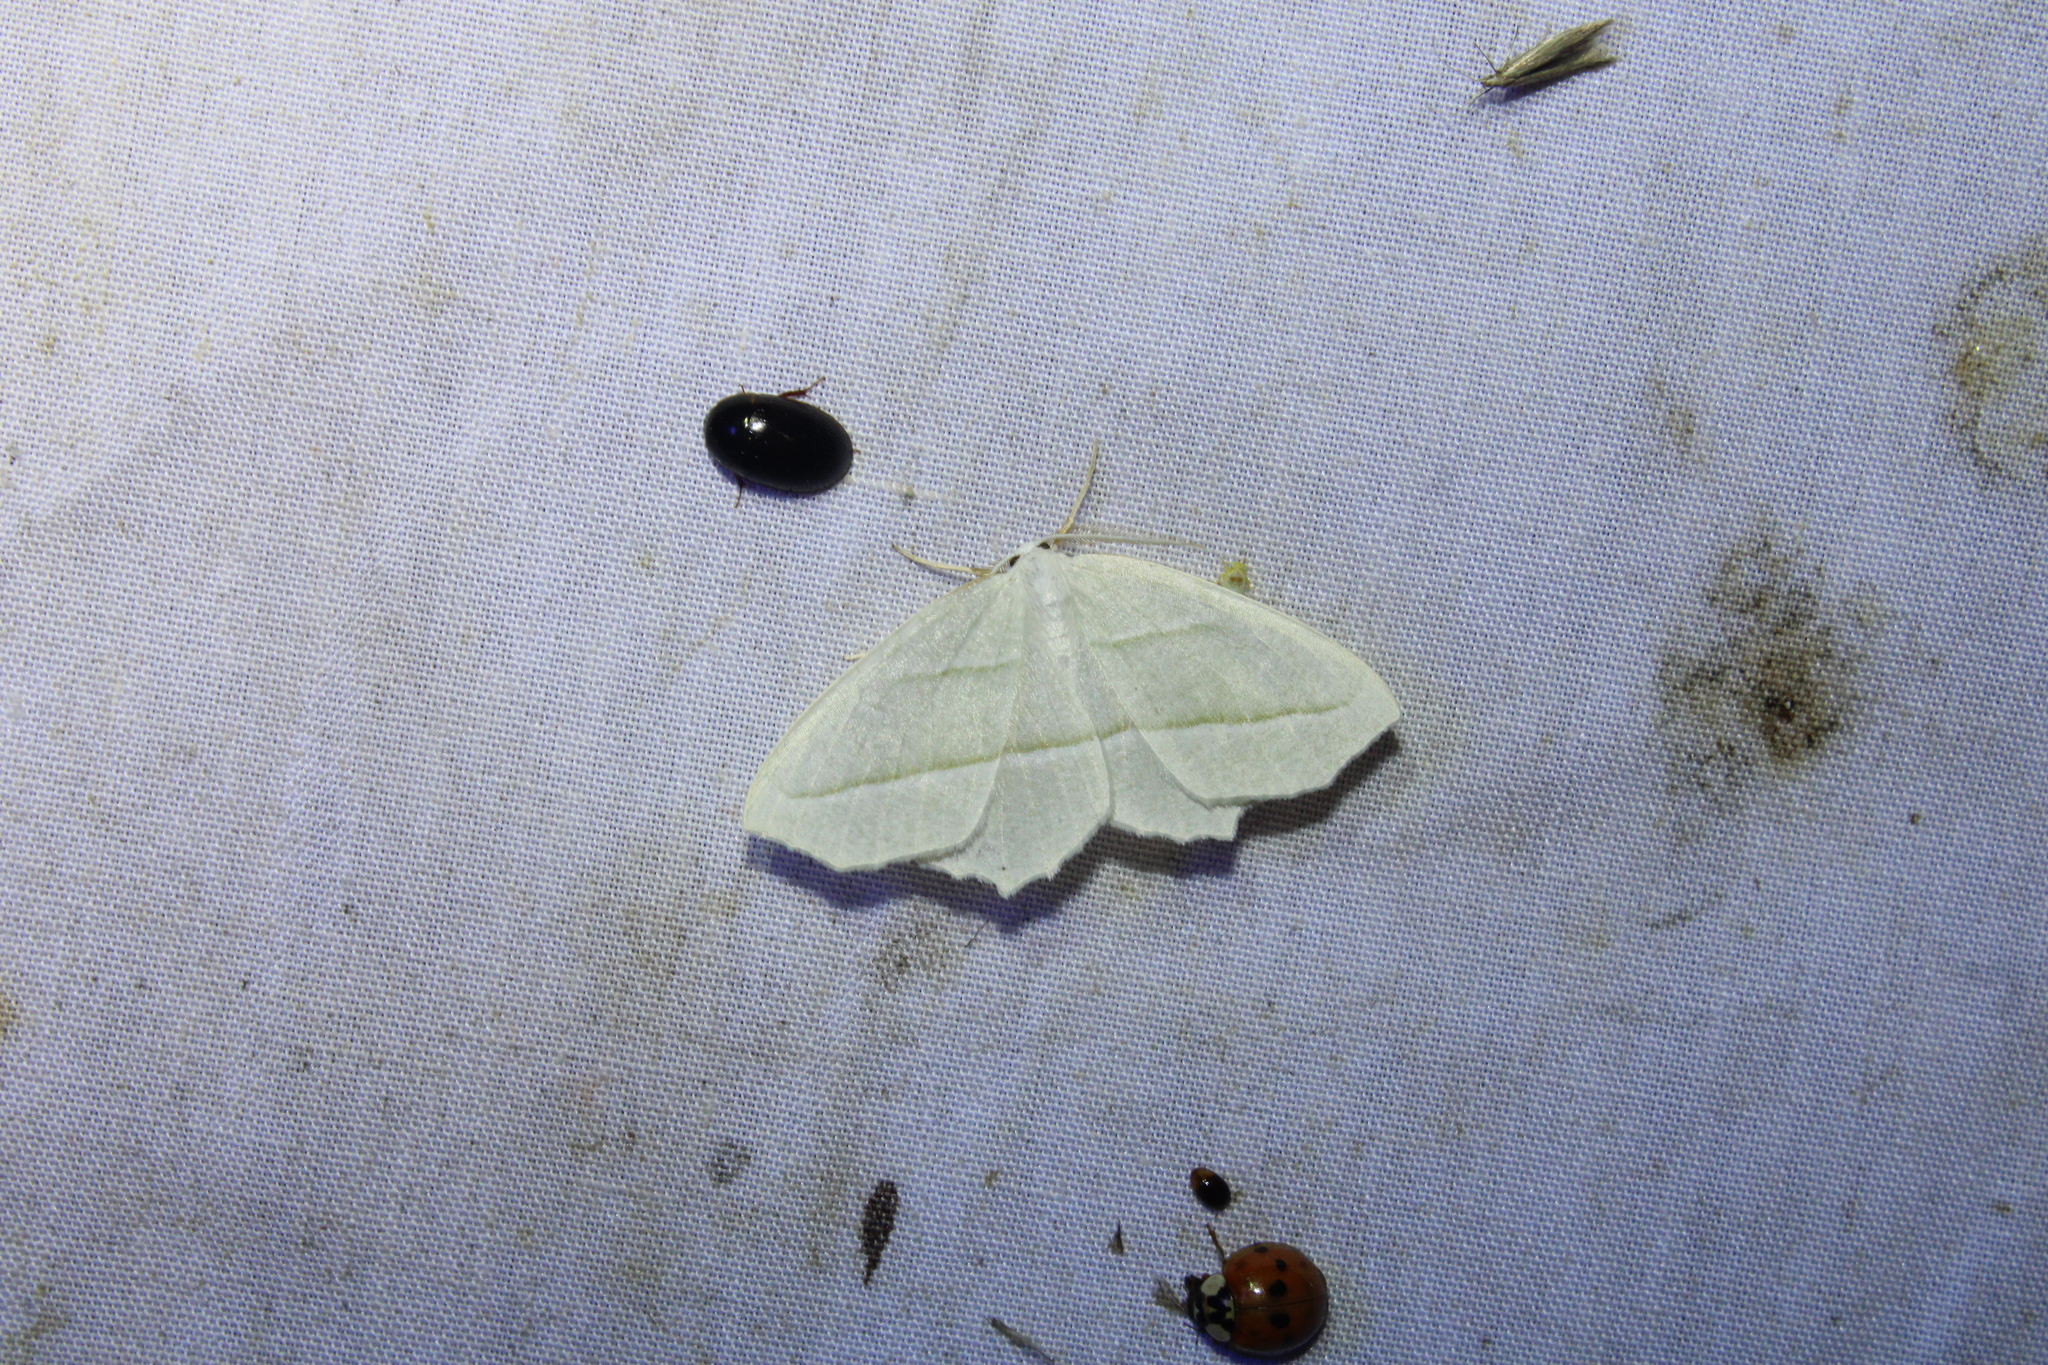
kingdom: Animalia
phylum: Arthropoda
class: Insecta
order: Lepidoptera
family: Geometridae
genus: Campaea
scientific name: Campaea perlata
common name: Fringed looper
